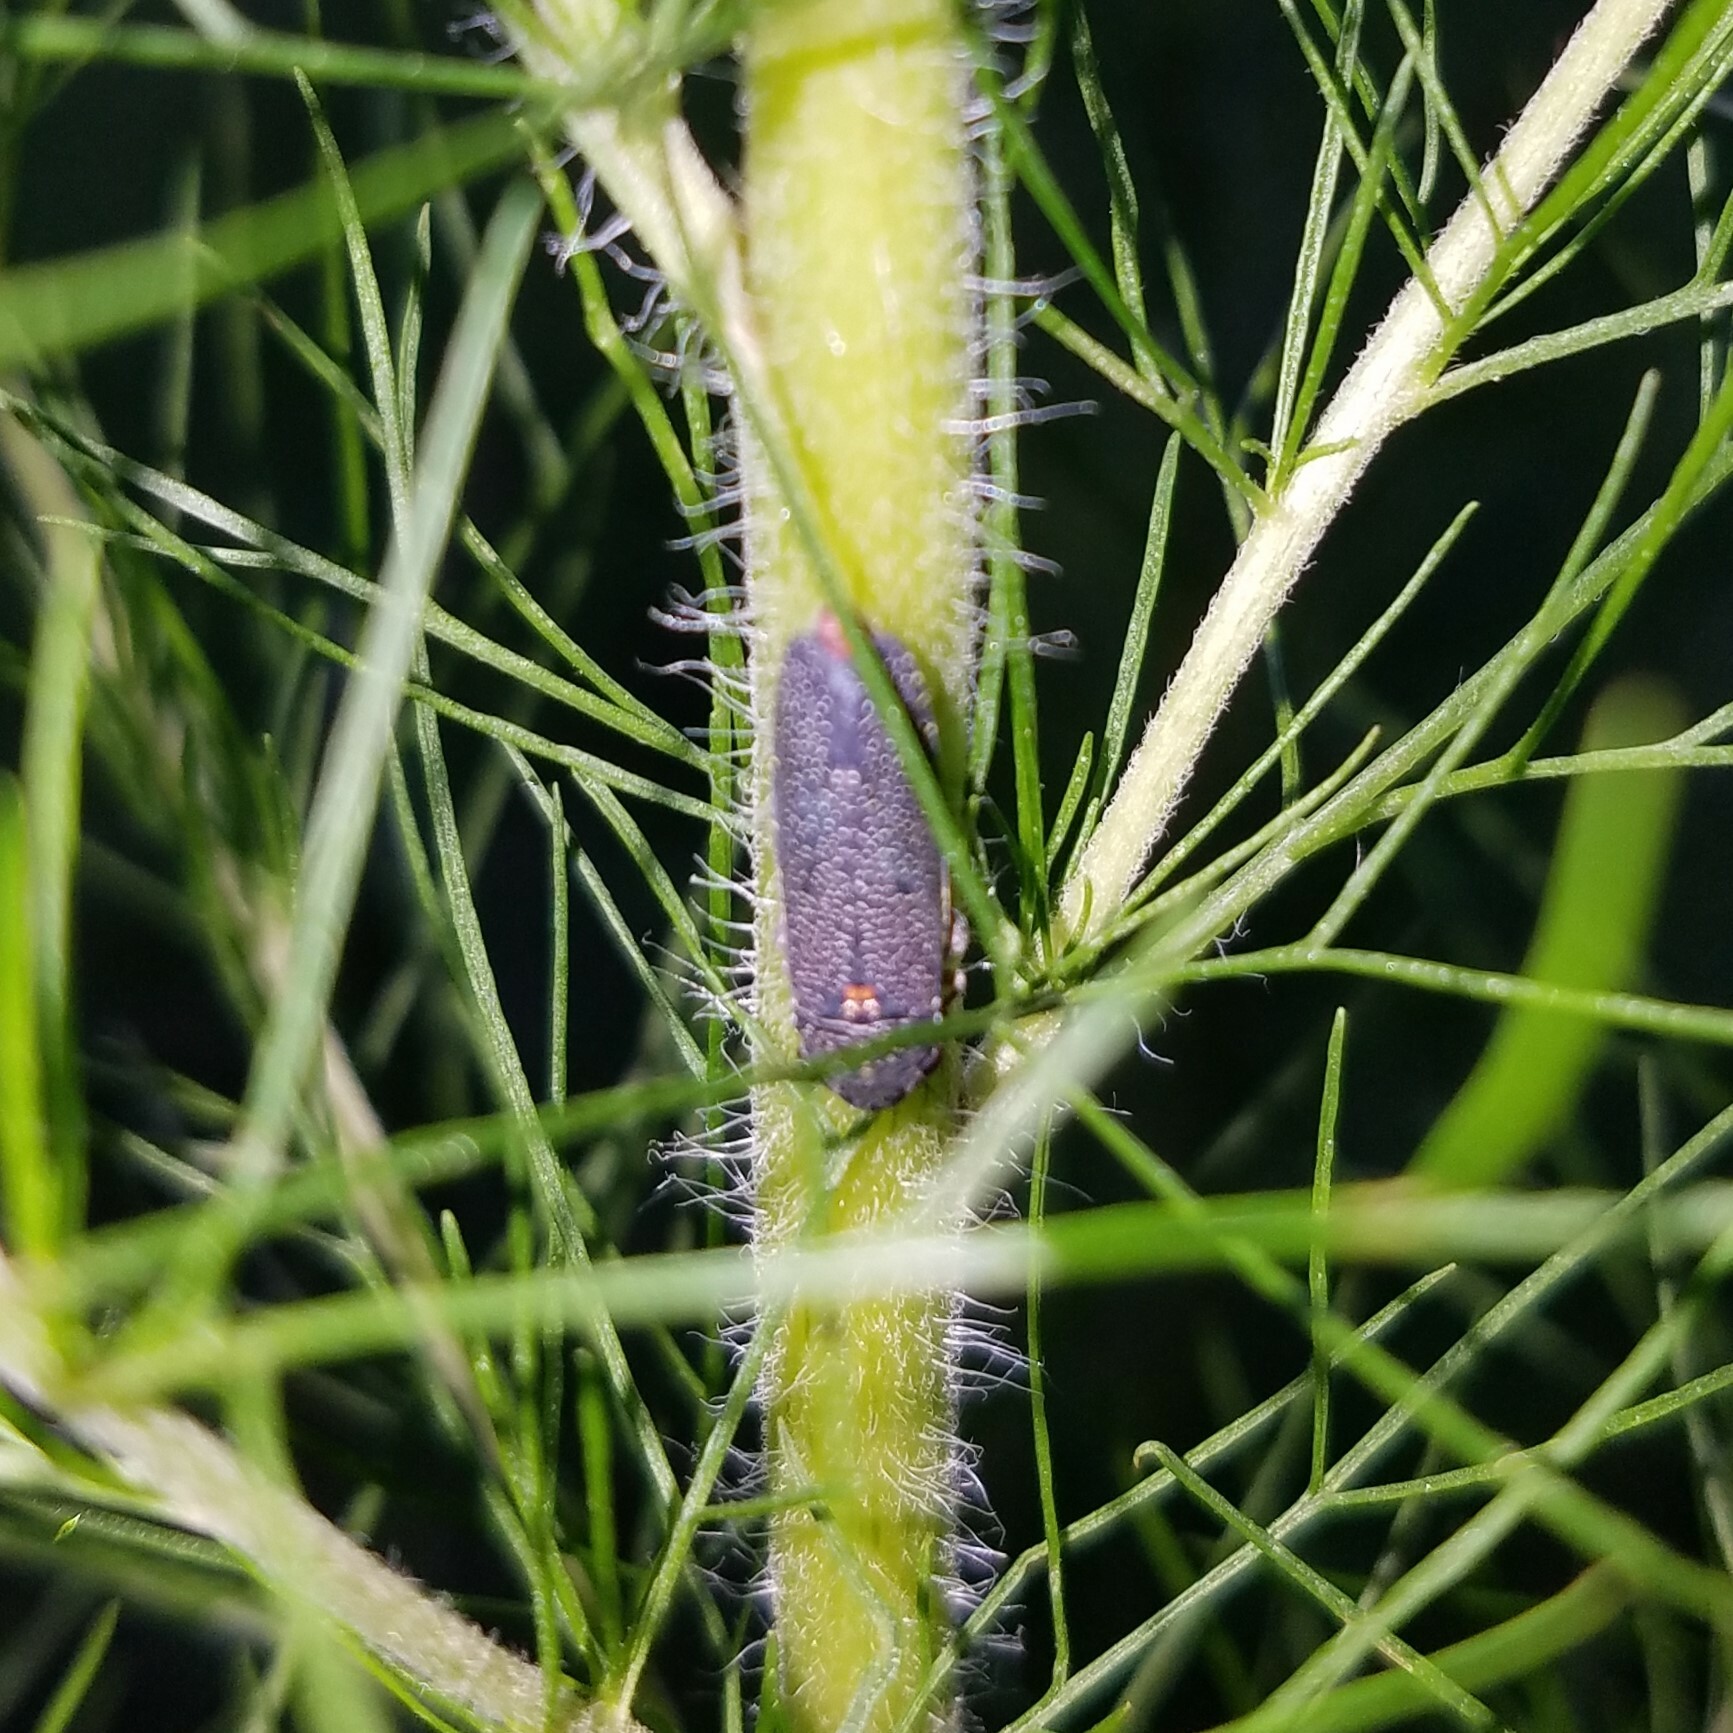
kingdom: Animalia
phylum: Arthropoda
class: Insecta
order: Hemiptera
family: Cicadellidae
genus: Paraulacizes
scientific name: Paraulacizes irrorata
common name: Speckled sharpshooter
